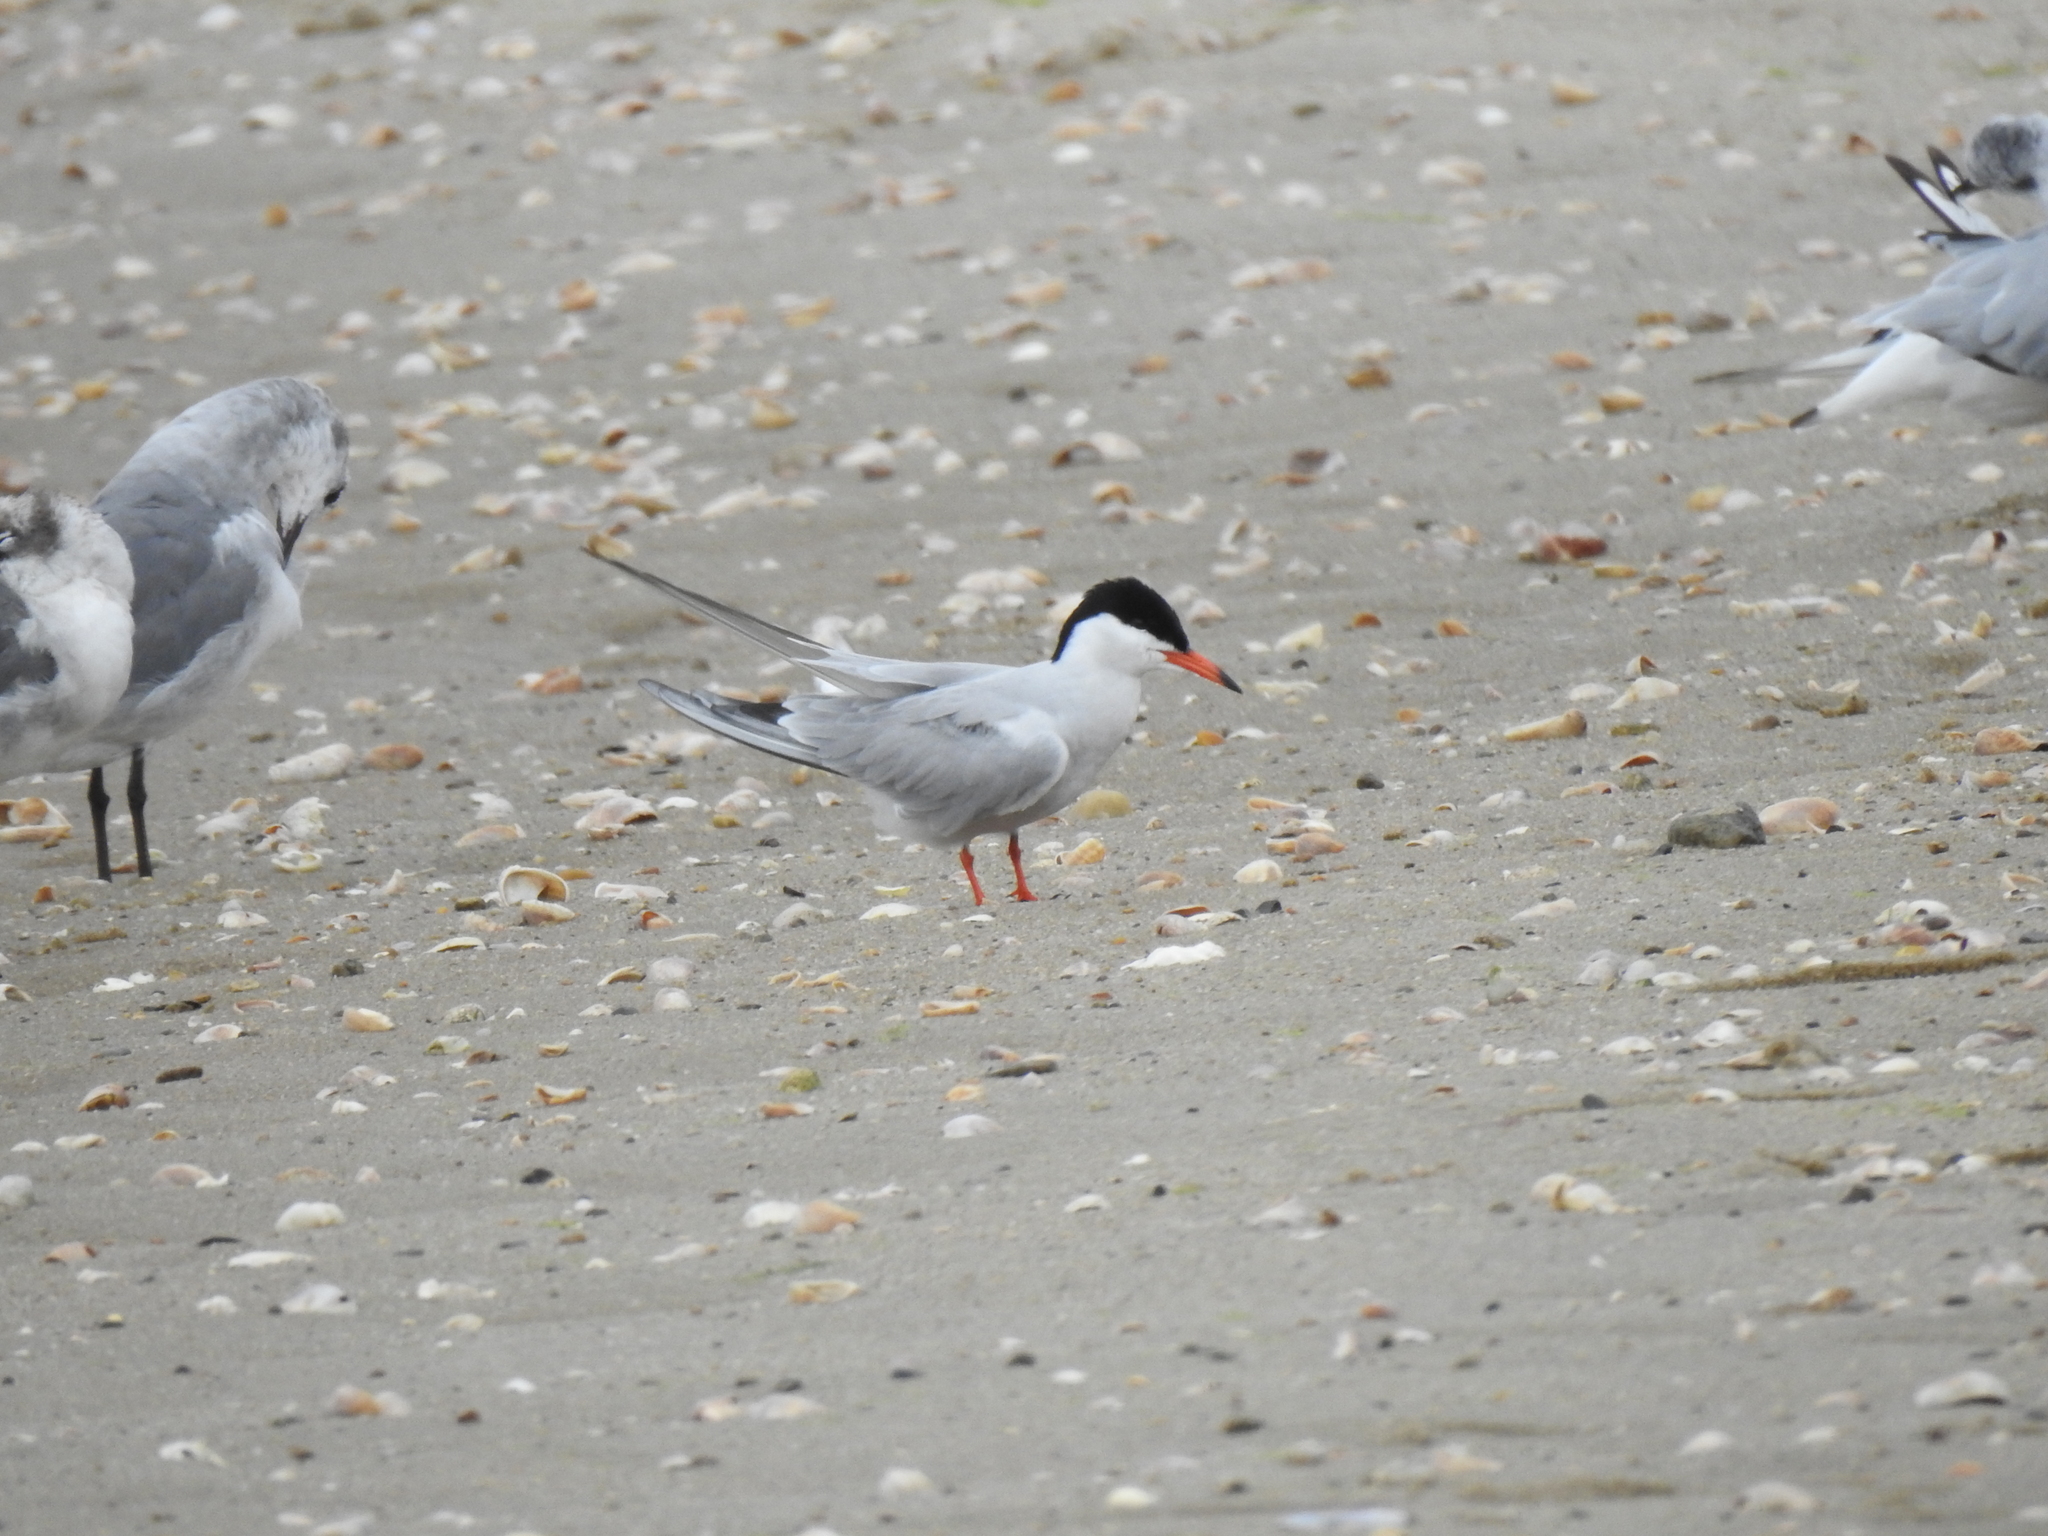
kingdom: Animalia
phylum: Chordata
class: Aves
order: Charadriiformes
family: Laridae
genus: Sterna
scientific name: Sterna hirundo
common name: Common tern
